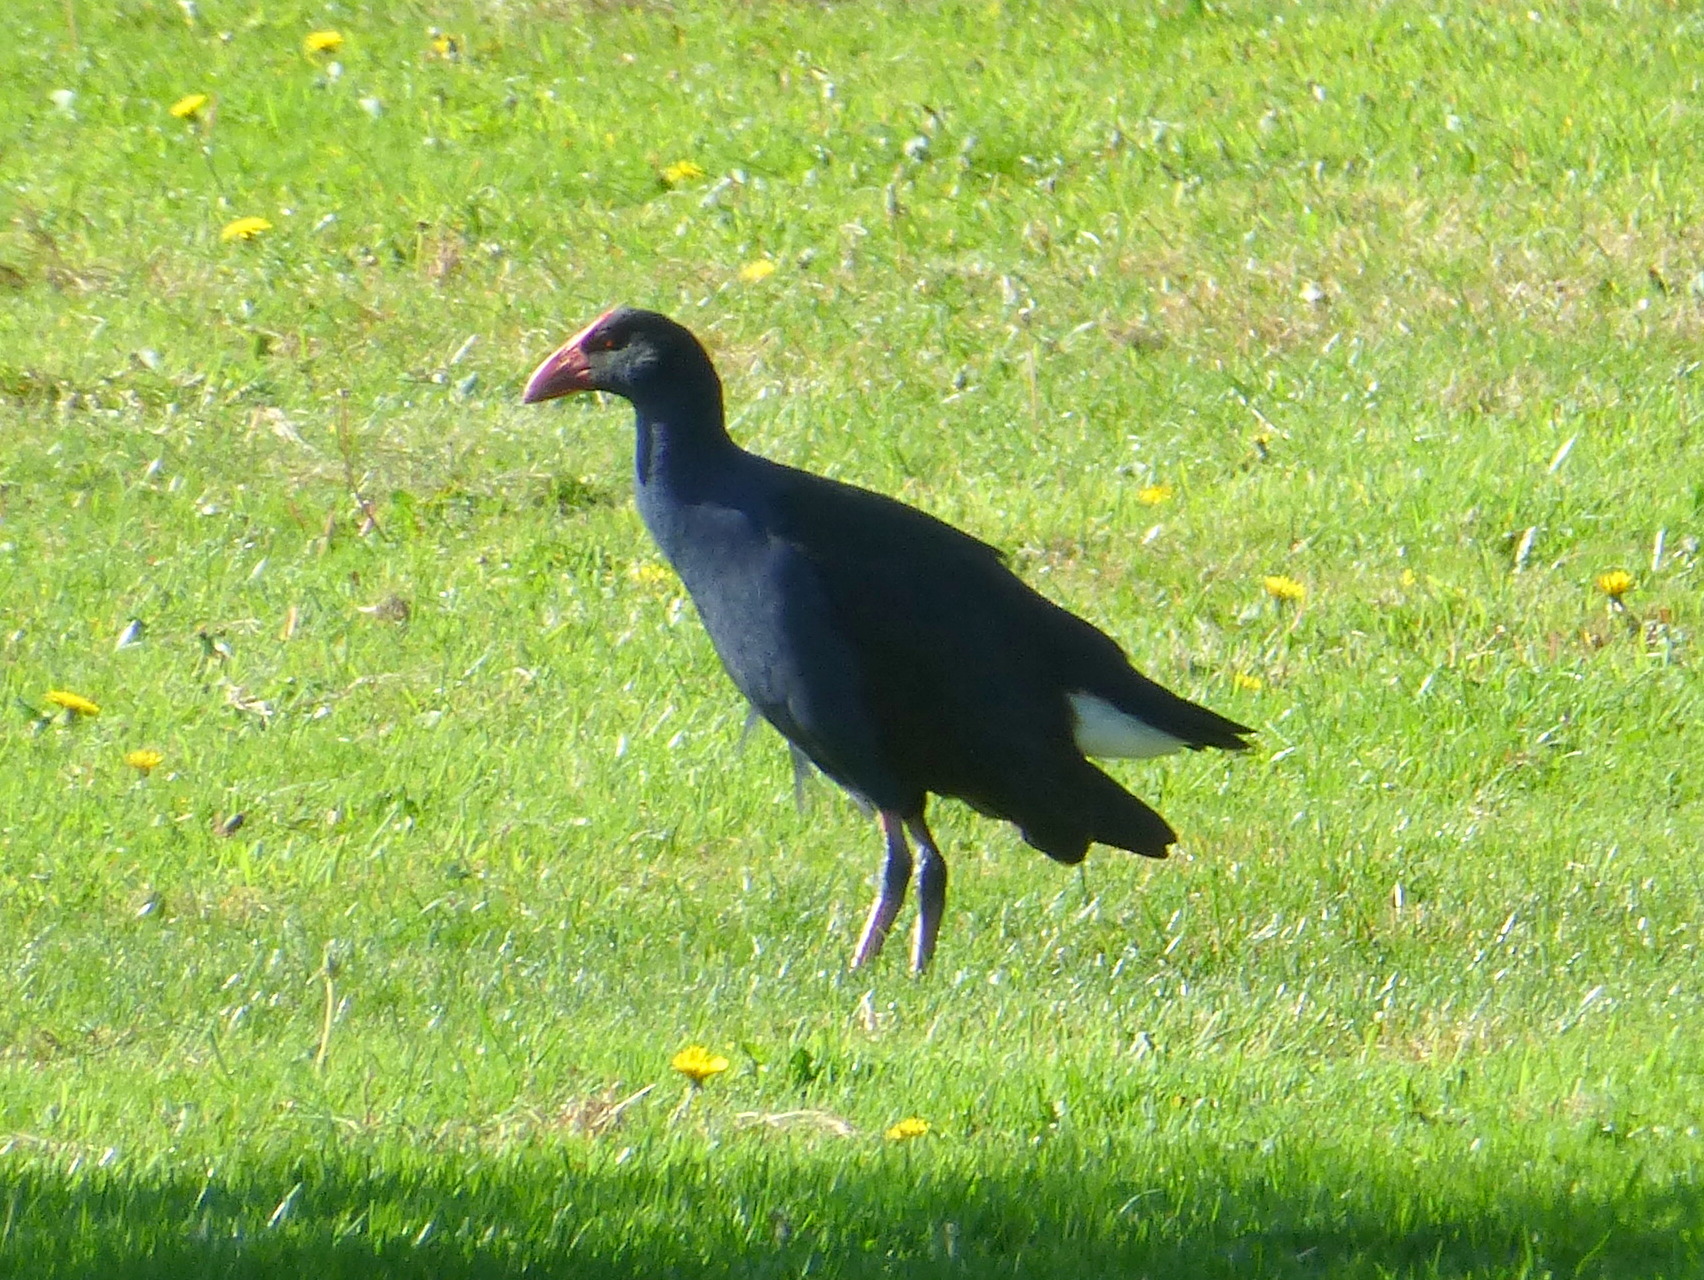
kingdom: Animalia
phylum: Chordata
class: Aves
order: Gruiformes
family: Rallidae
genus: Porphyrio
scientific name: Porphyrio melanotus
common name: Australasian swamphen
